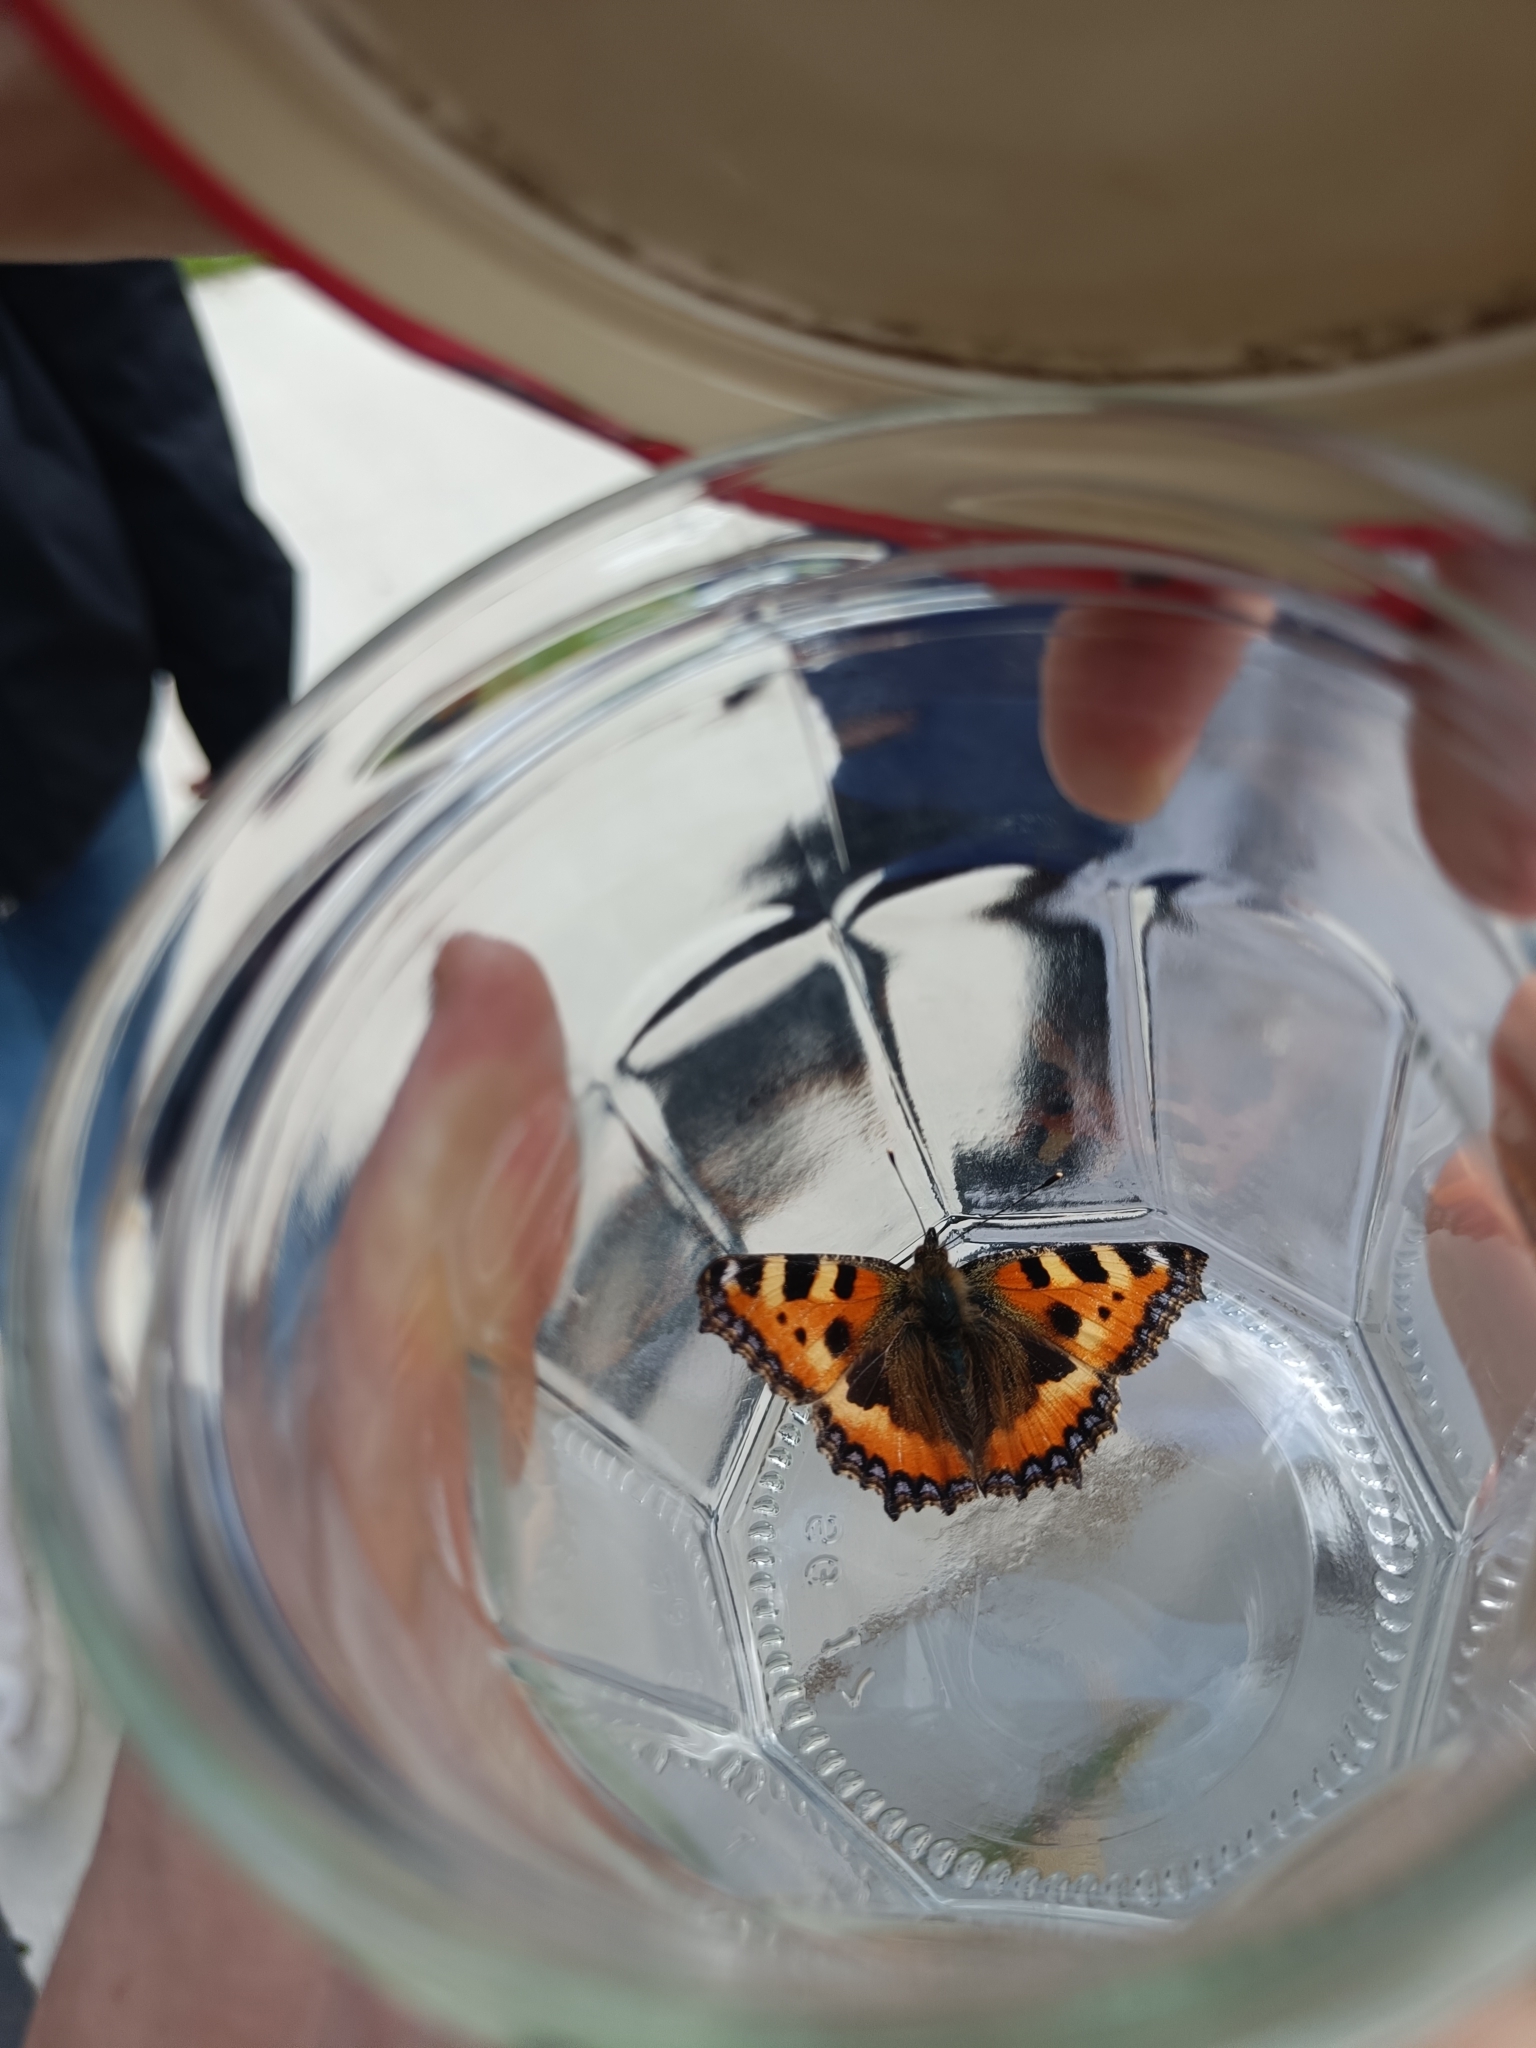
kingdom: Animalia
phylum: Arthropoda
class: Insecta
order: Lepidoptera
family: Nymphalidae
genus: Aglais
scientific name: Aglais urticae
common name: Small tortoiseshell
